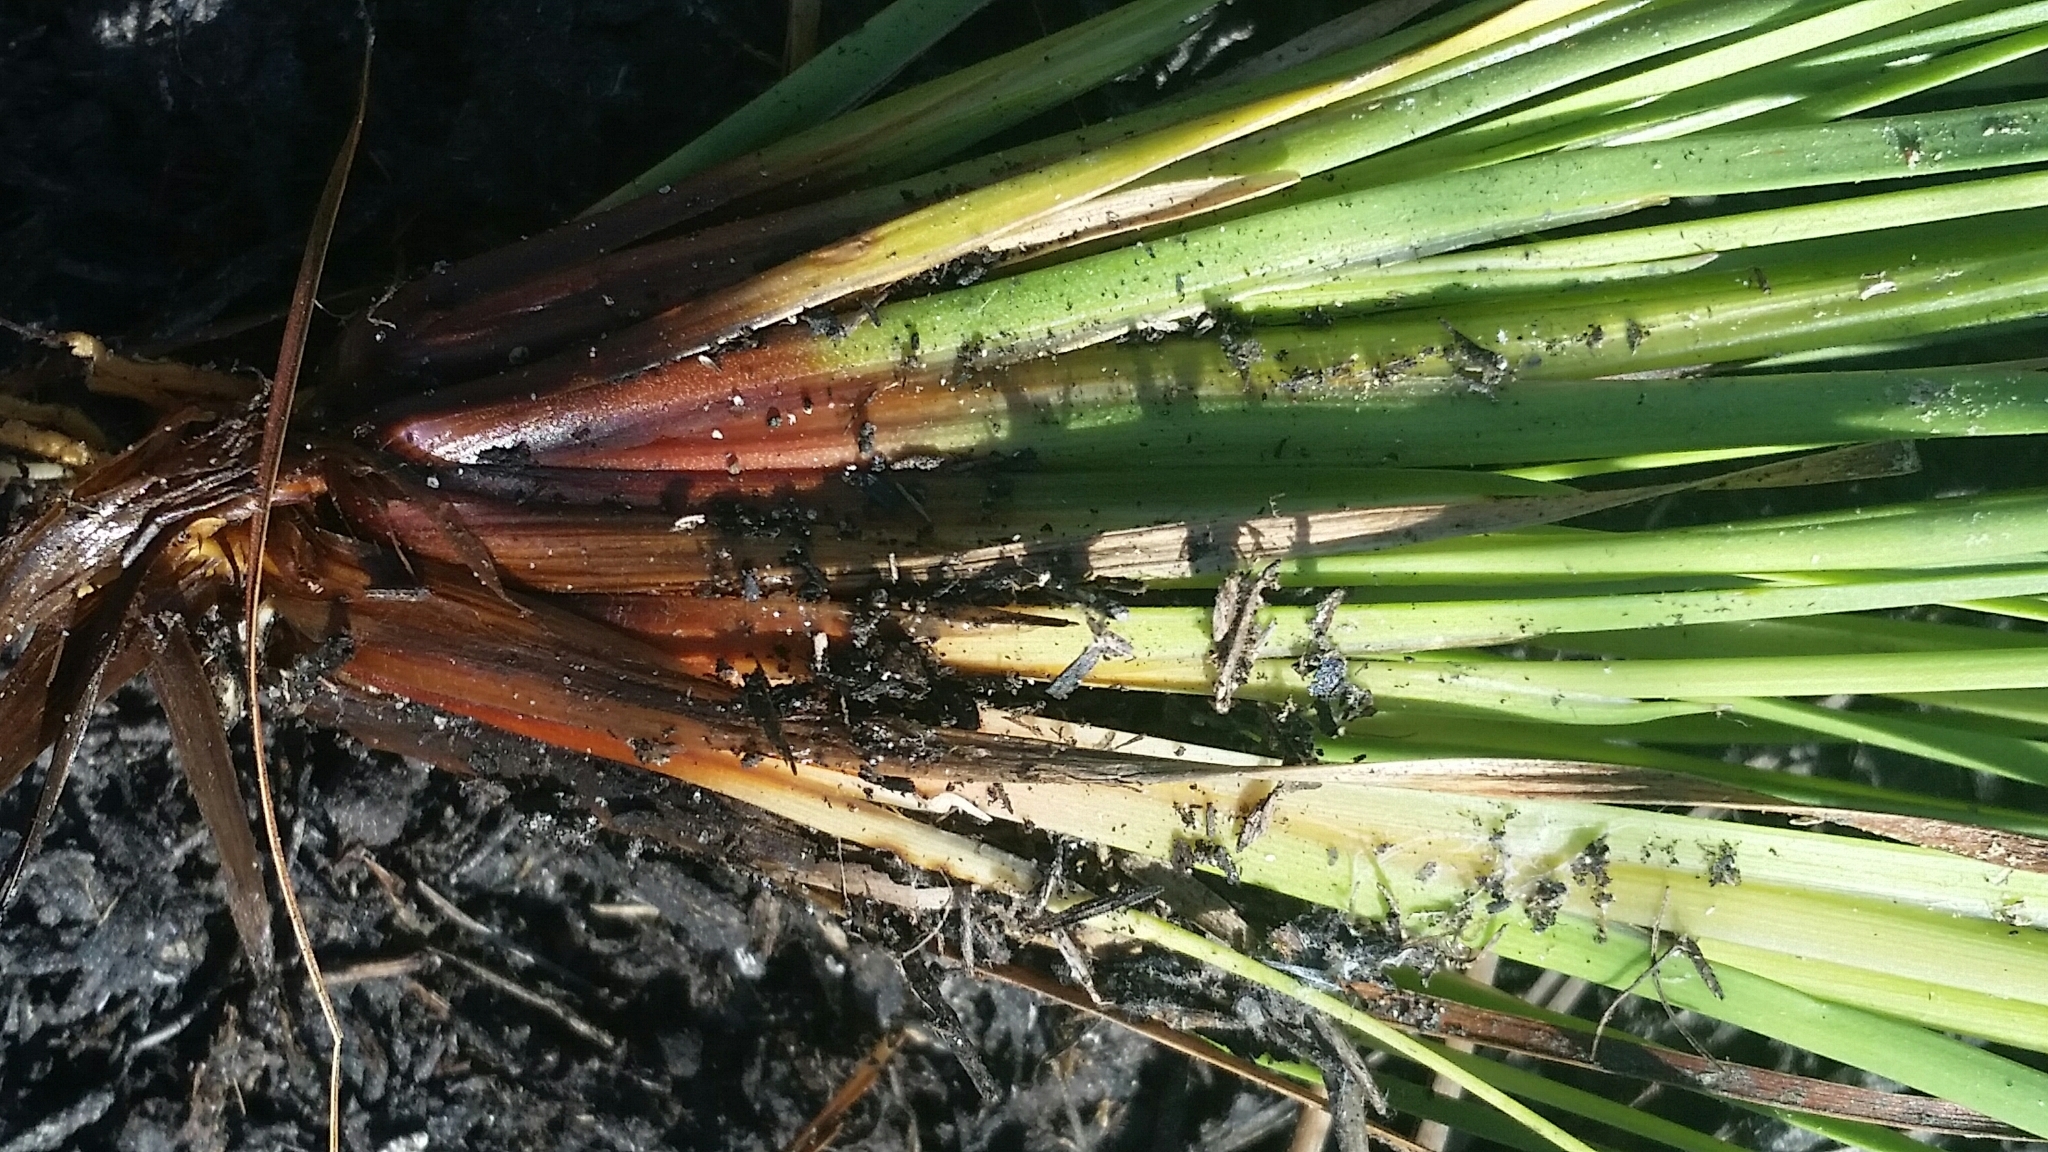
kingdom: Plantae
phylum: Tracheophyta
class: Liliopsida
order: Poales
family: Xyridaceae
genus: Xyris
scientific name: Xyris elliottii
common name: Elliot's yelloweyed grass
